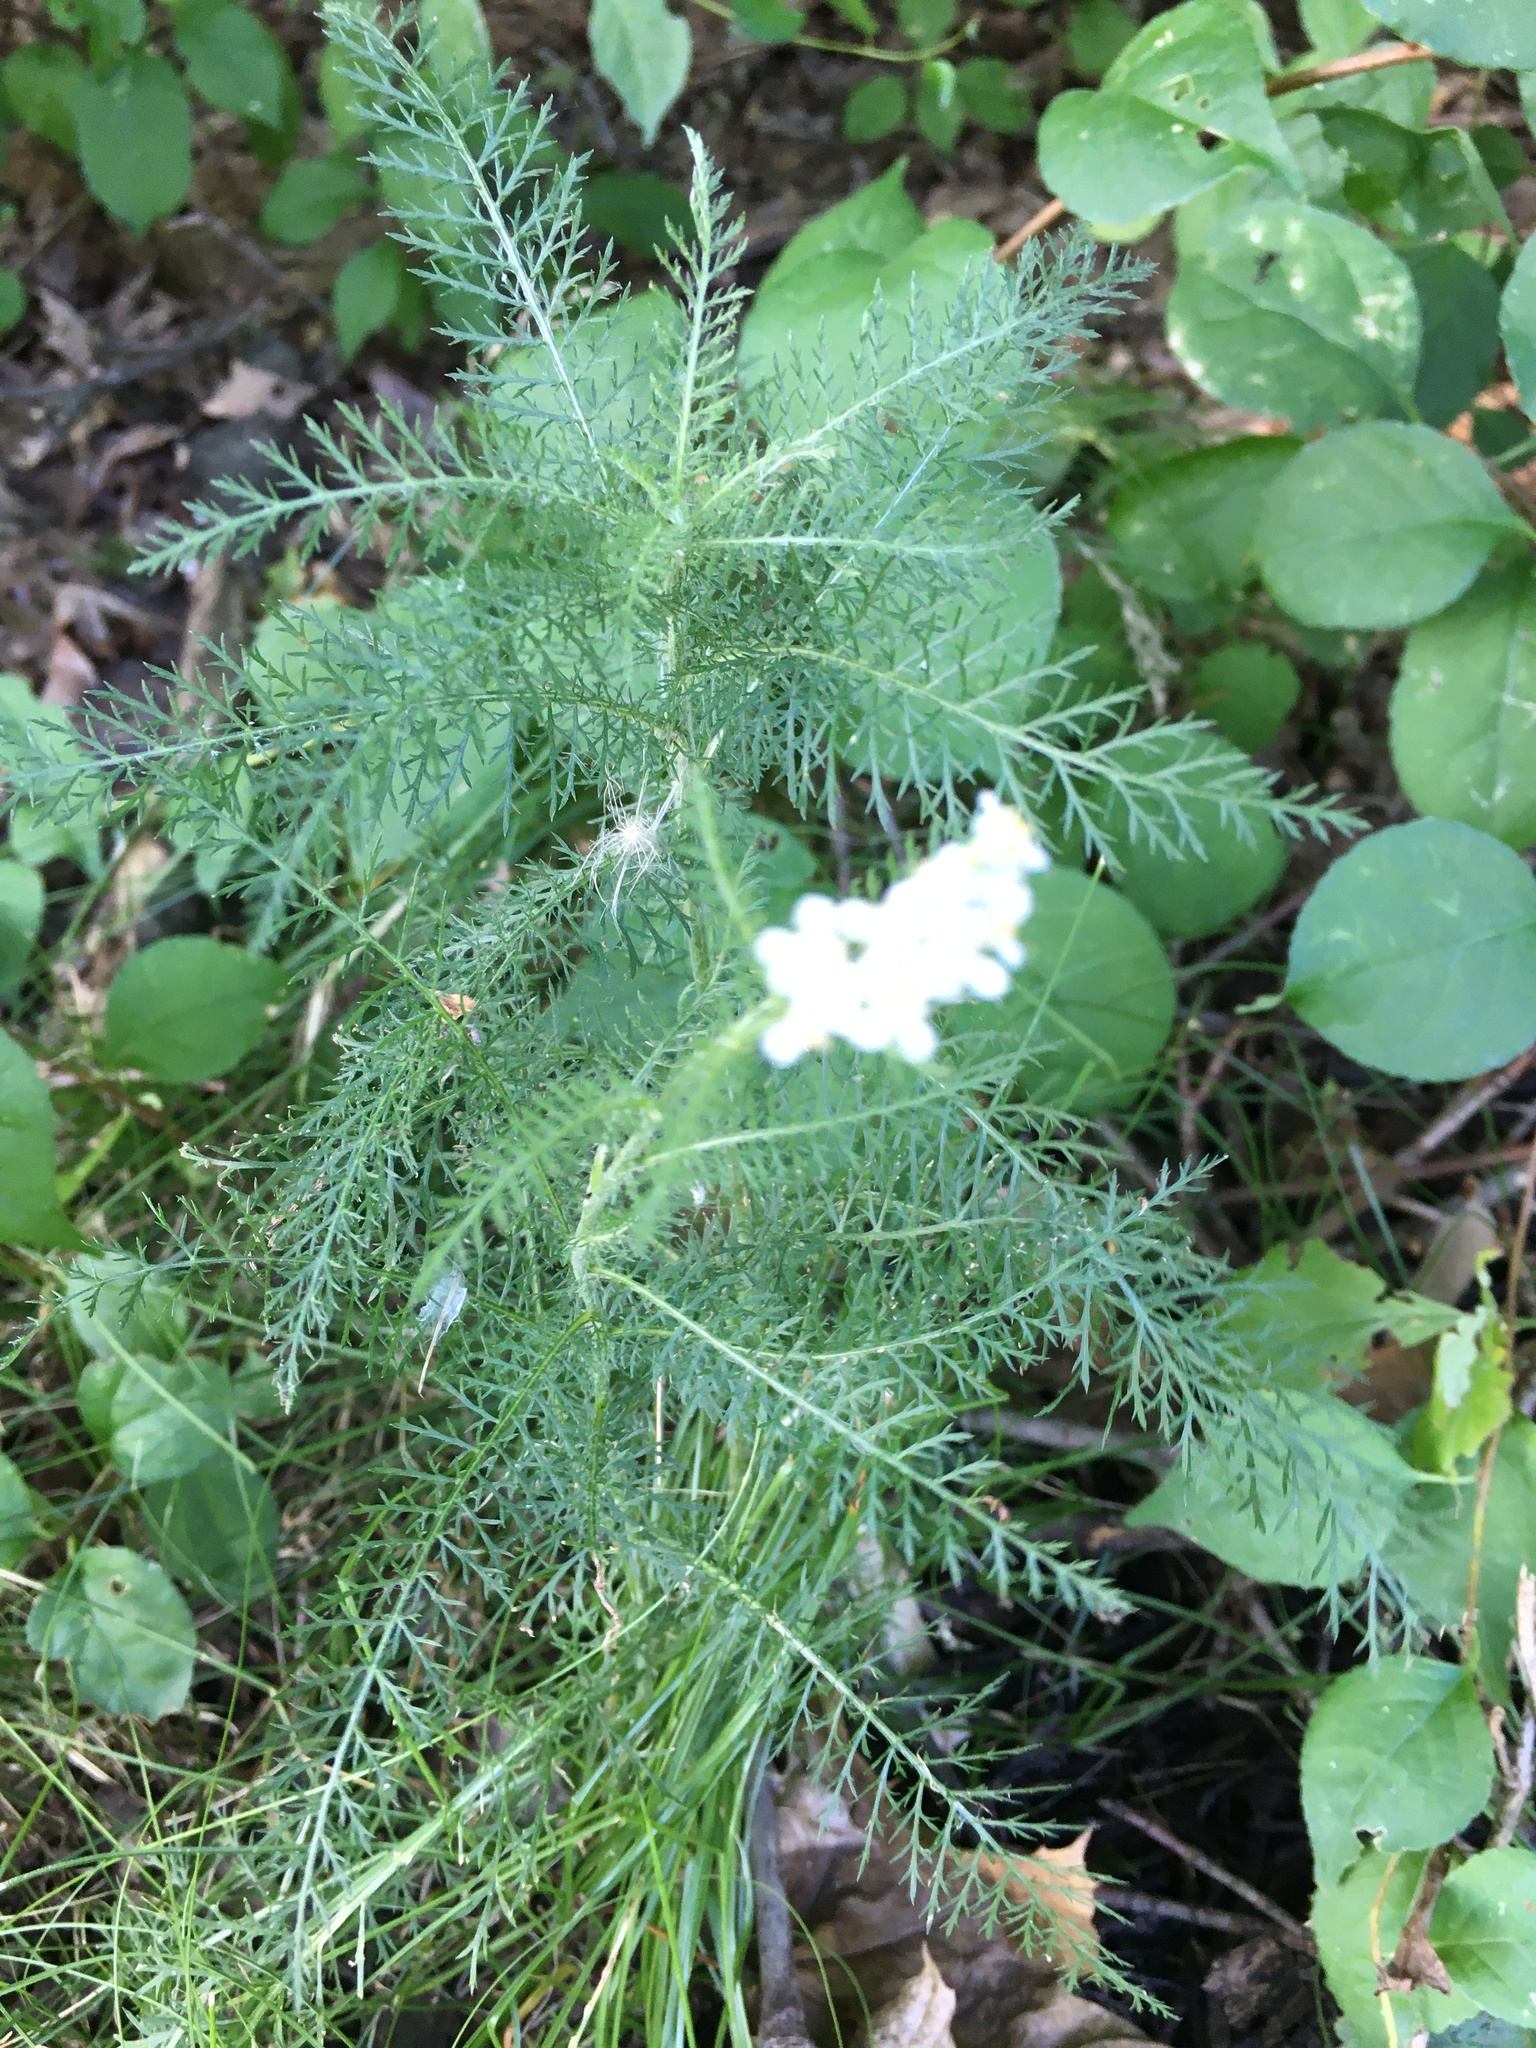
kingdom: Plantae
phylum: Tracheophyta
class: Magnoliopsida
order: Asterales
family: Asteraceae
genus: Achillea
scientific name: Achillea millefolium
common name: Yarrow
